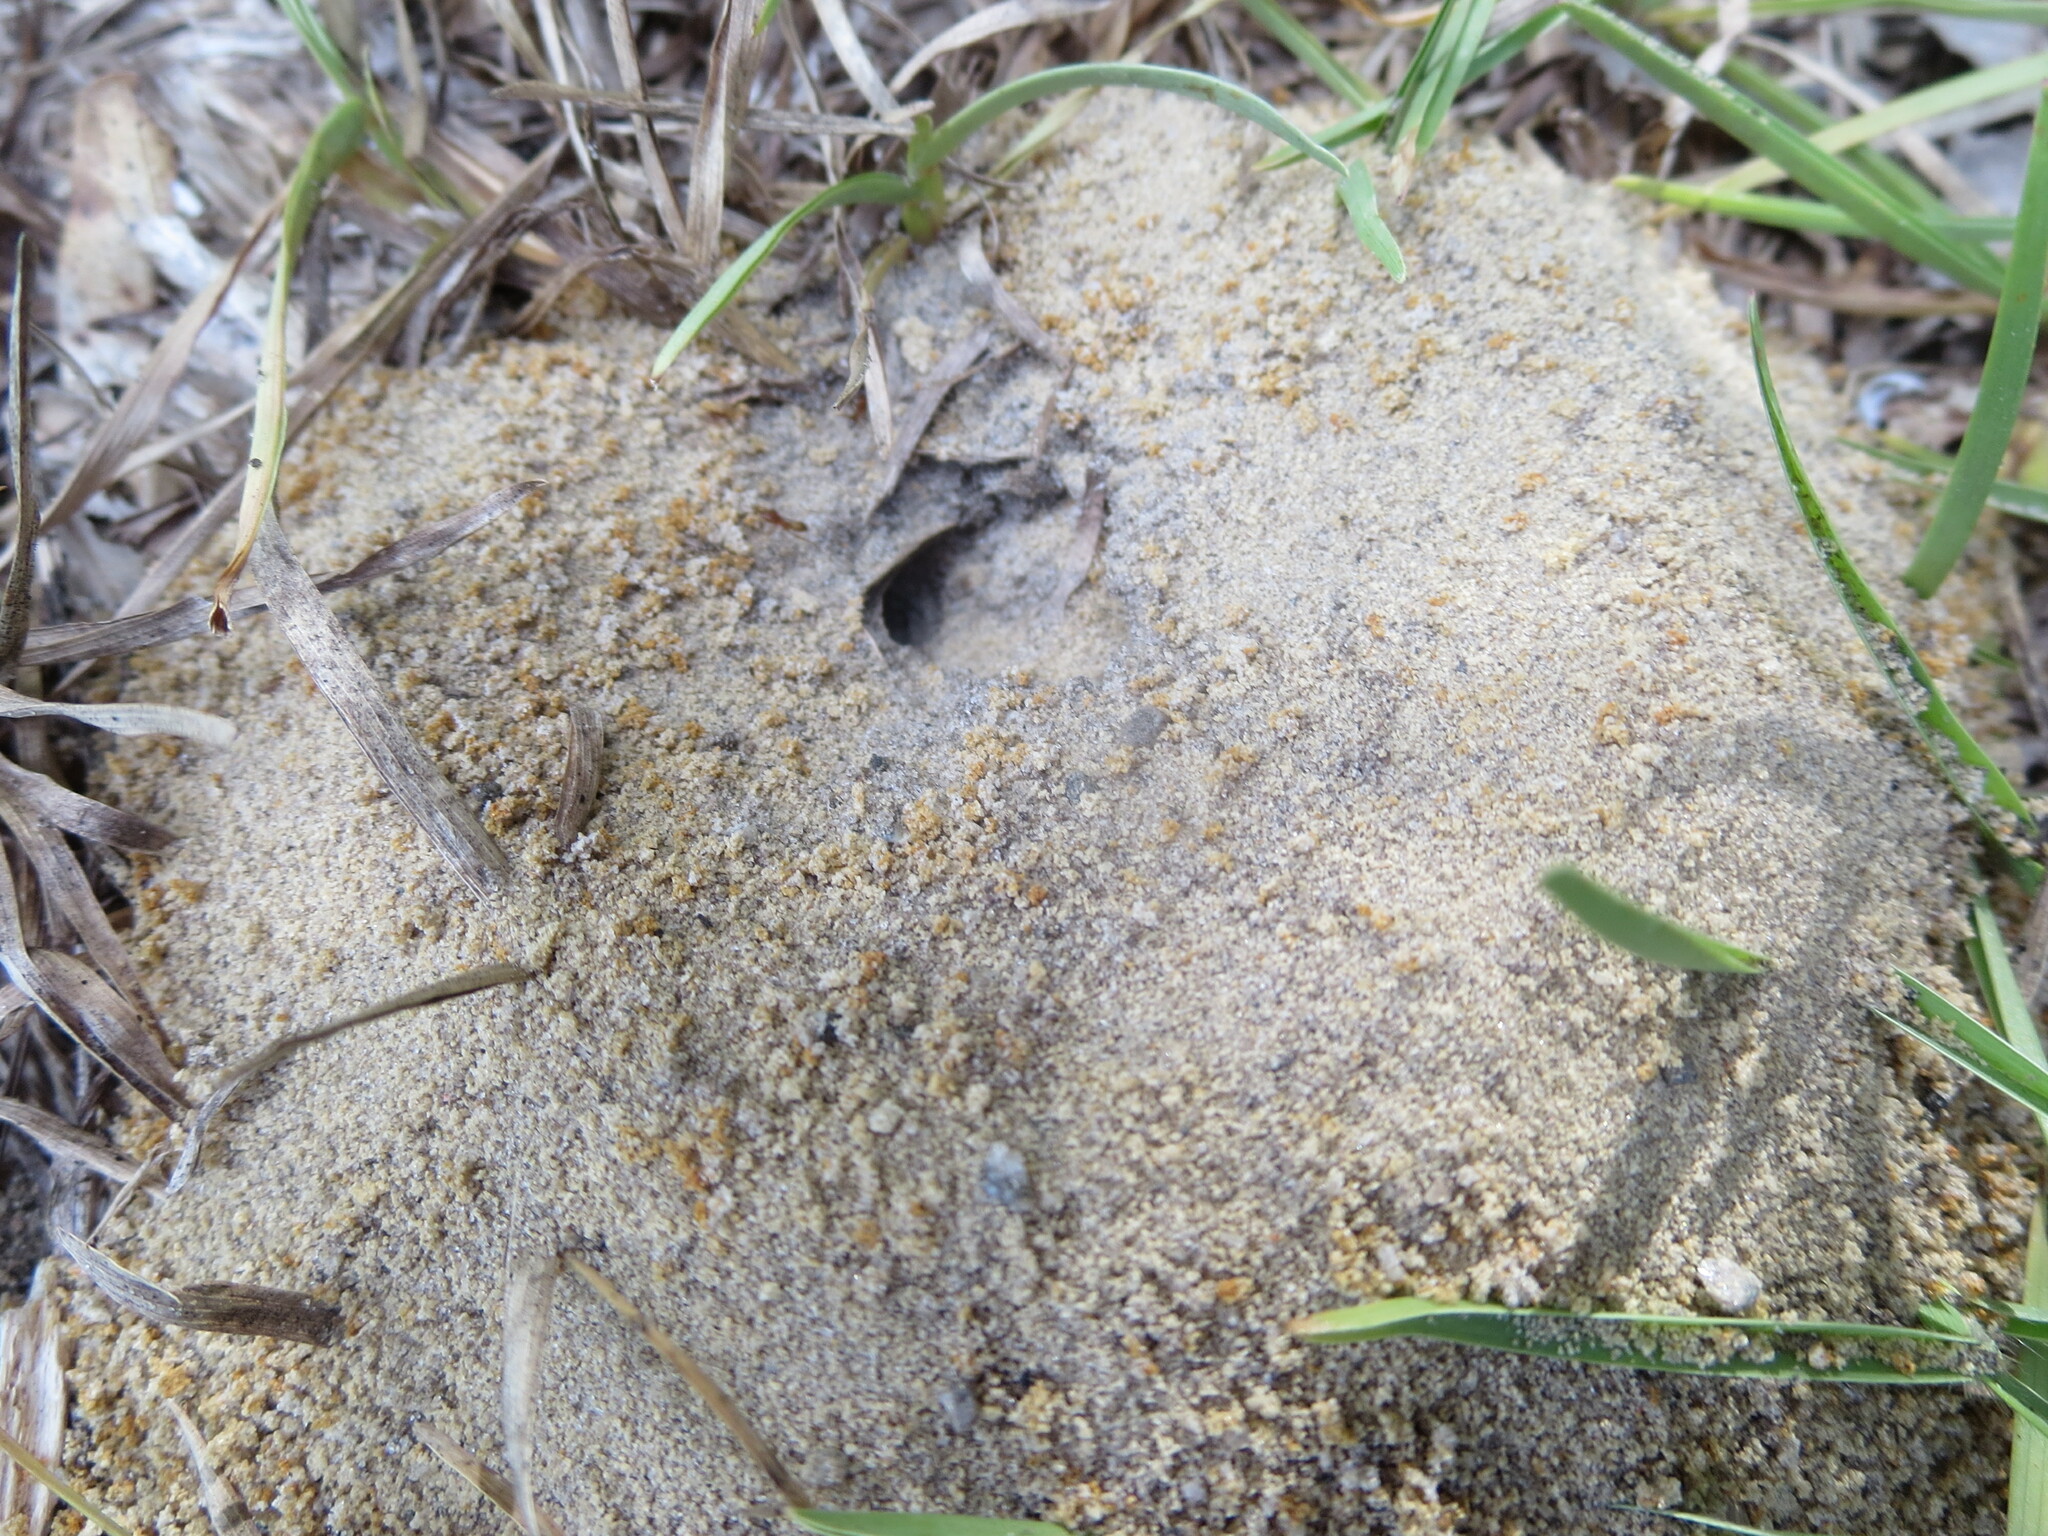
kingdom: Animalia
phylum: Arthropoda
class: Insecta
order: Hymenoptera
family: Formicidae
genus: Dorymyrmex
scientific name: Dorymyrmex bureni
